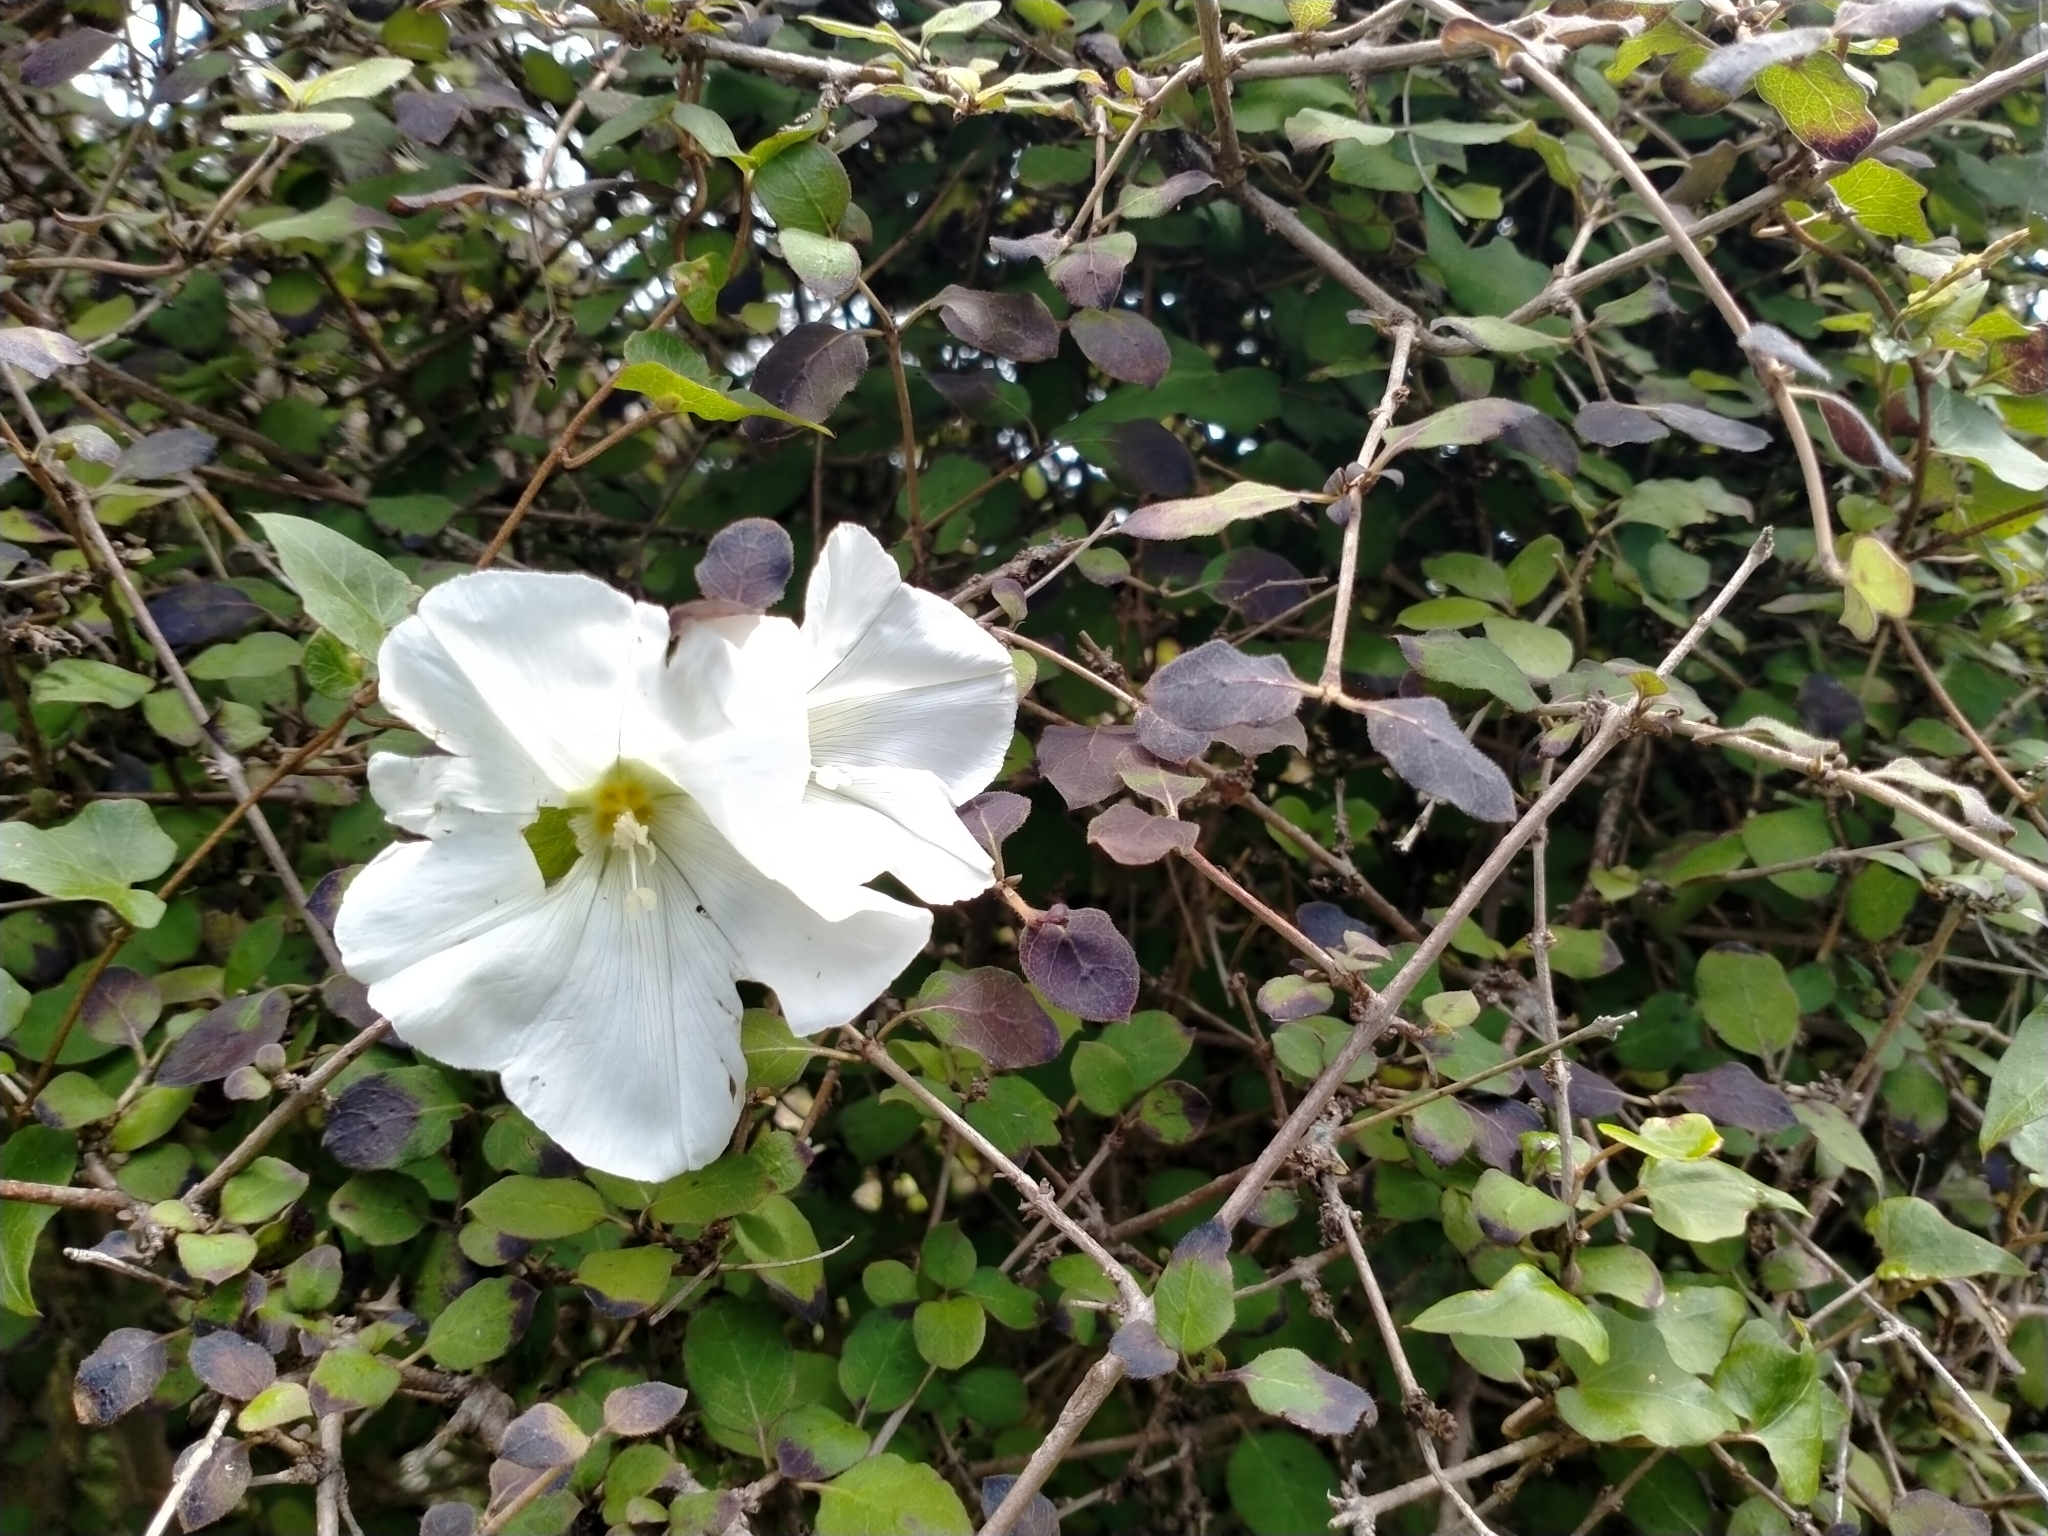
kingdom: Plantae
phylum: Tracheophyta
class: Magnoliopsida
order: Solanales
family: Convolvulaceae
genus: Calystegia
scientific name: Calystegia tuguriorum
